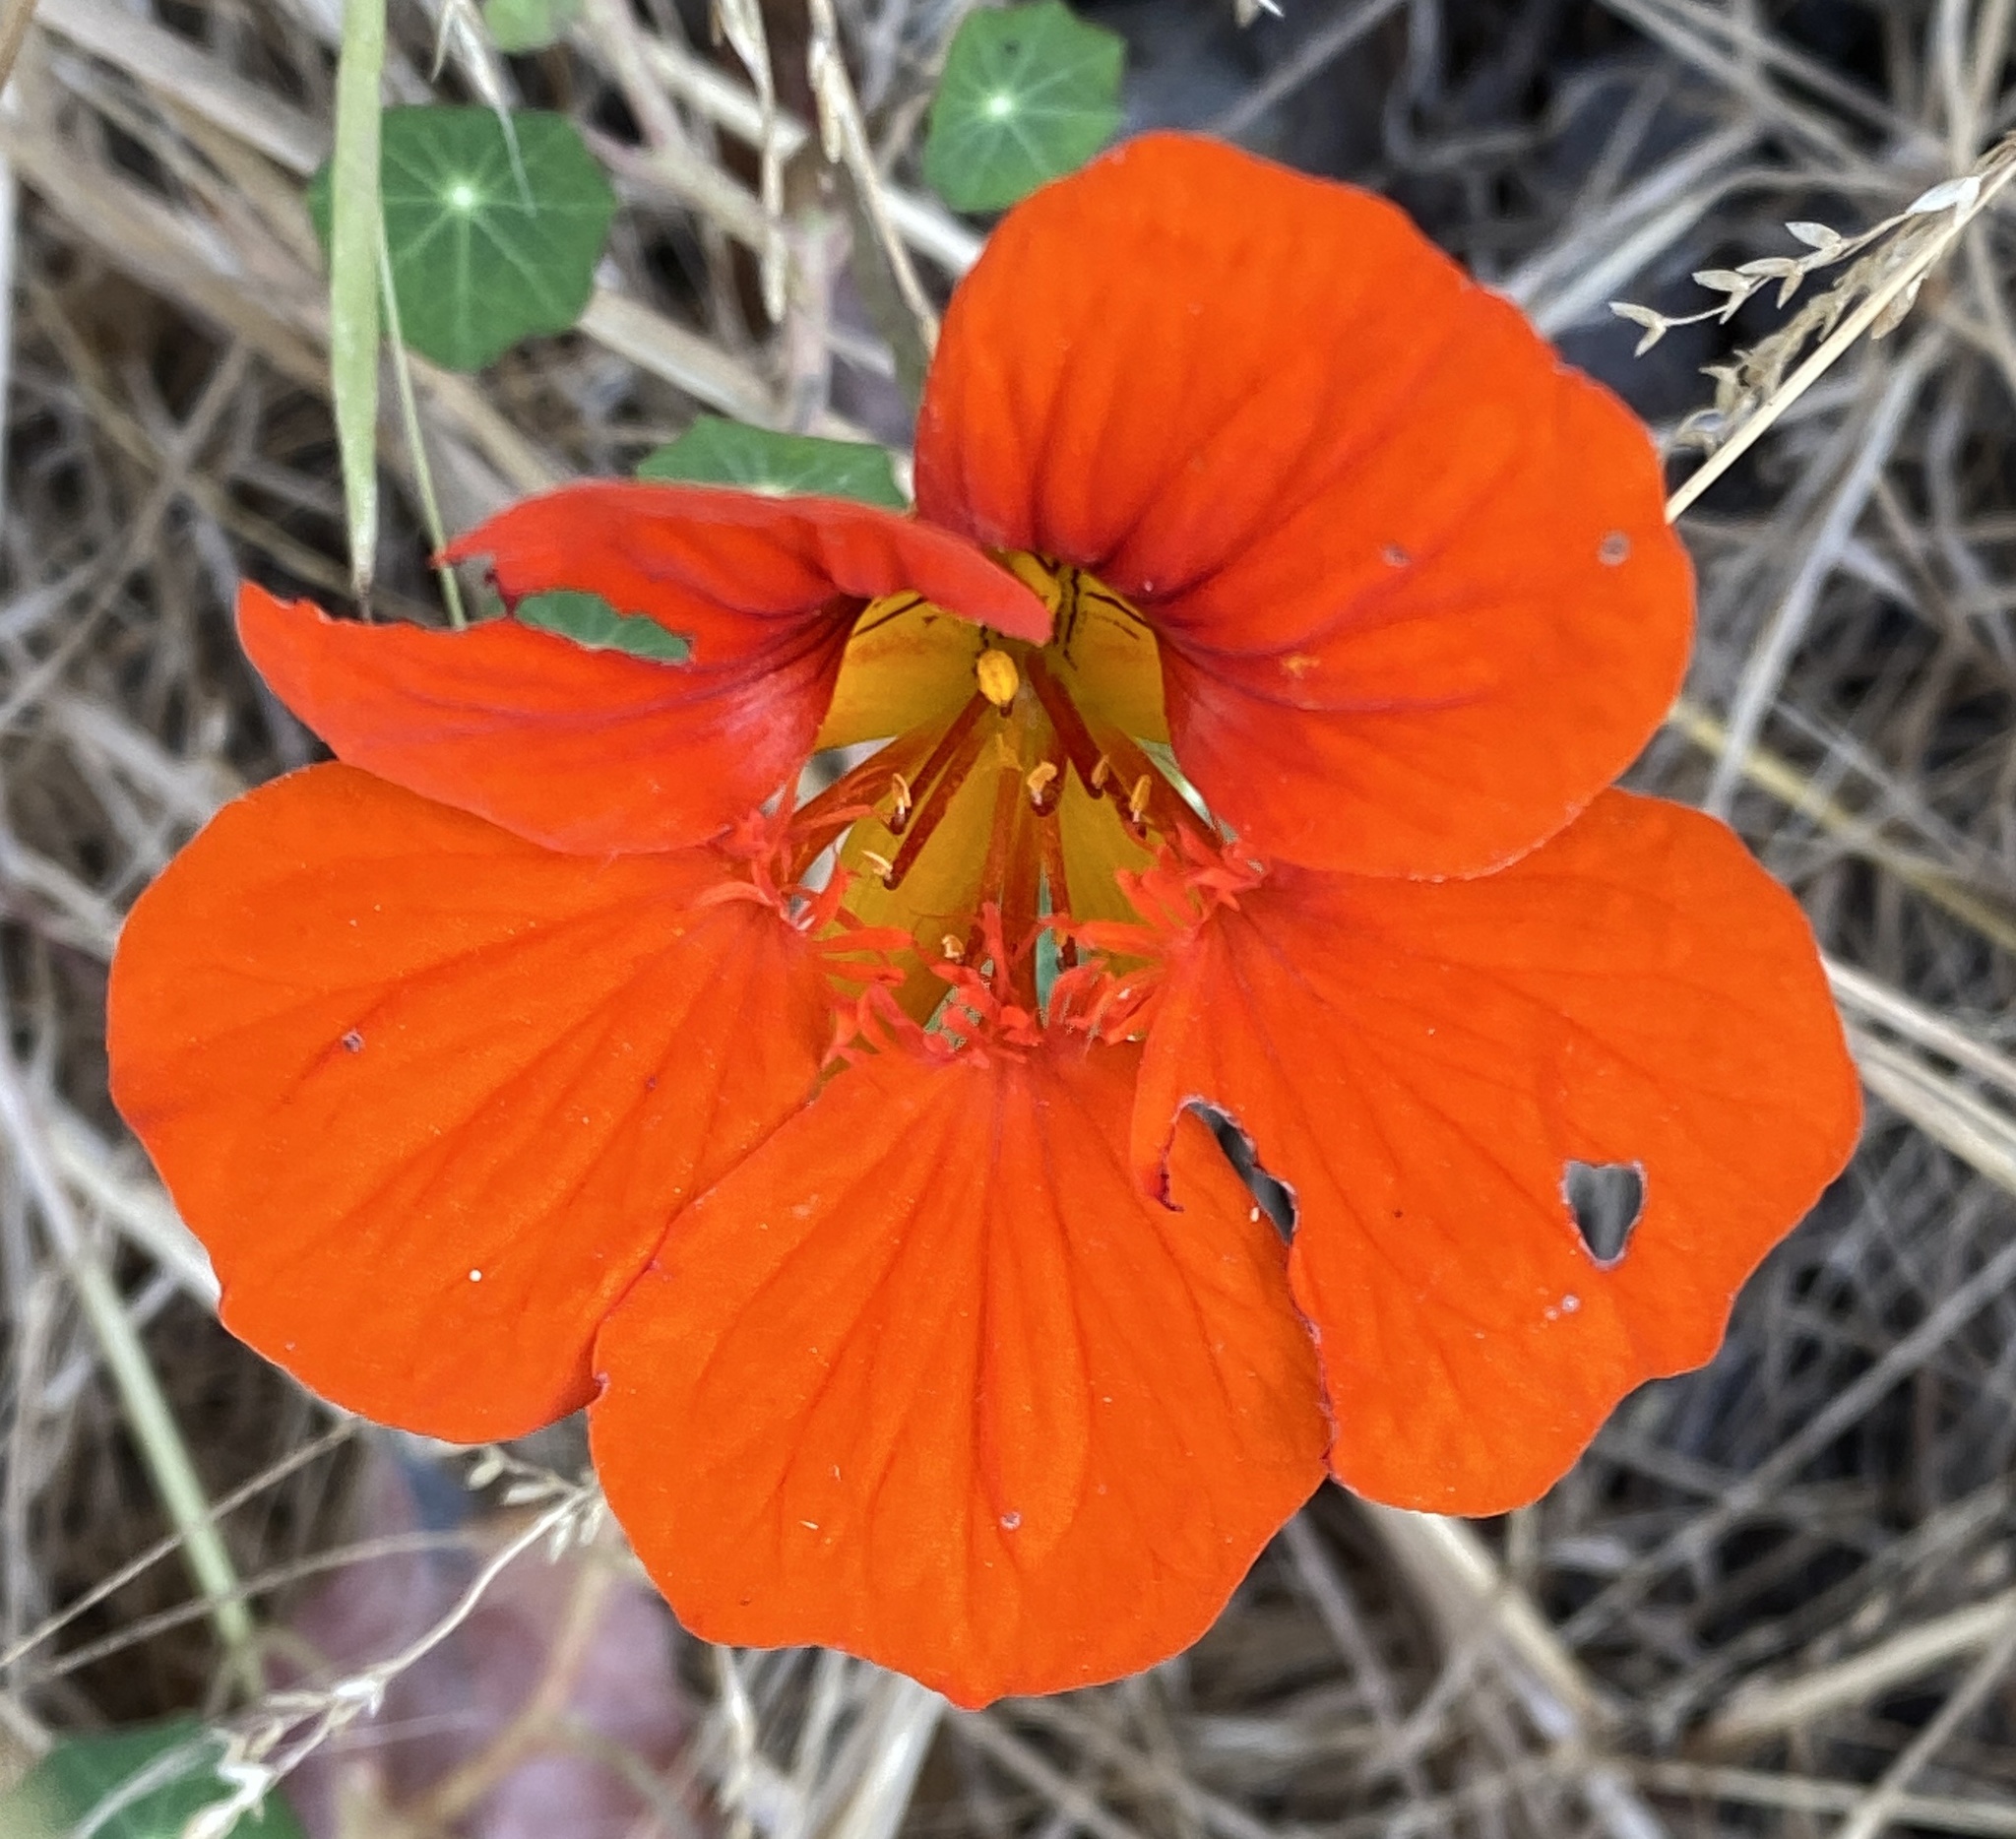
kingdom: Plantae
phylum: Tracheophyta
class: Magnoliopsida
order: Brassicales
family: Tropaeolaceae
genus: Tropaeolum
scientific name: Tropaeolum majus
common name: Nasturtium
